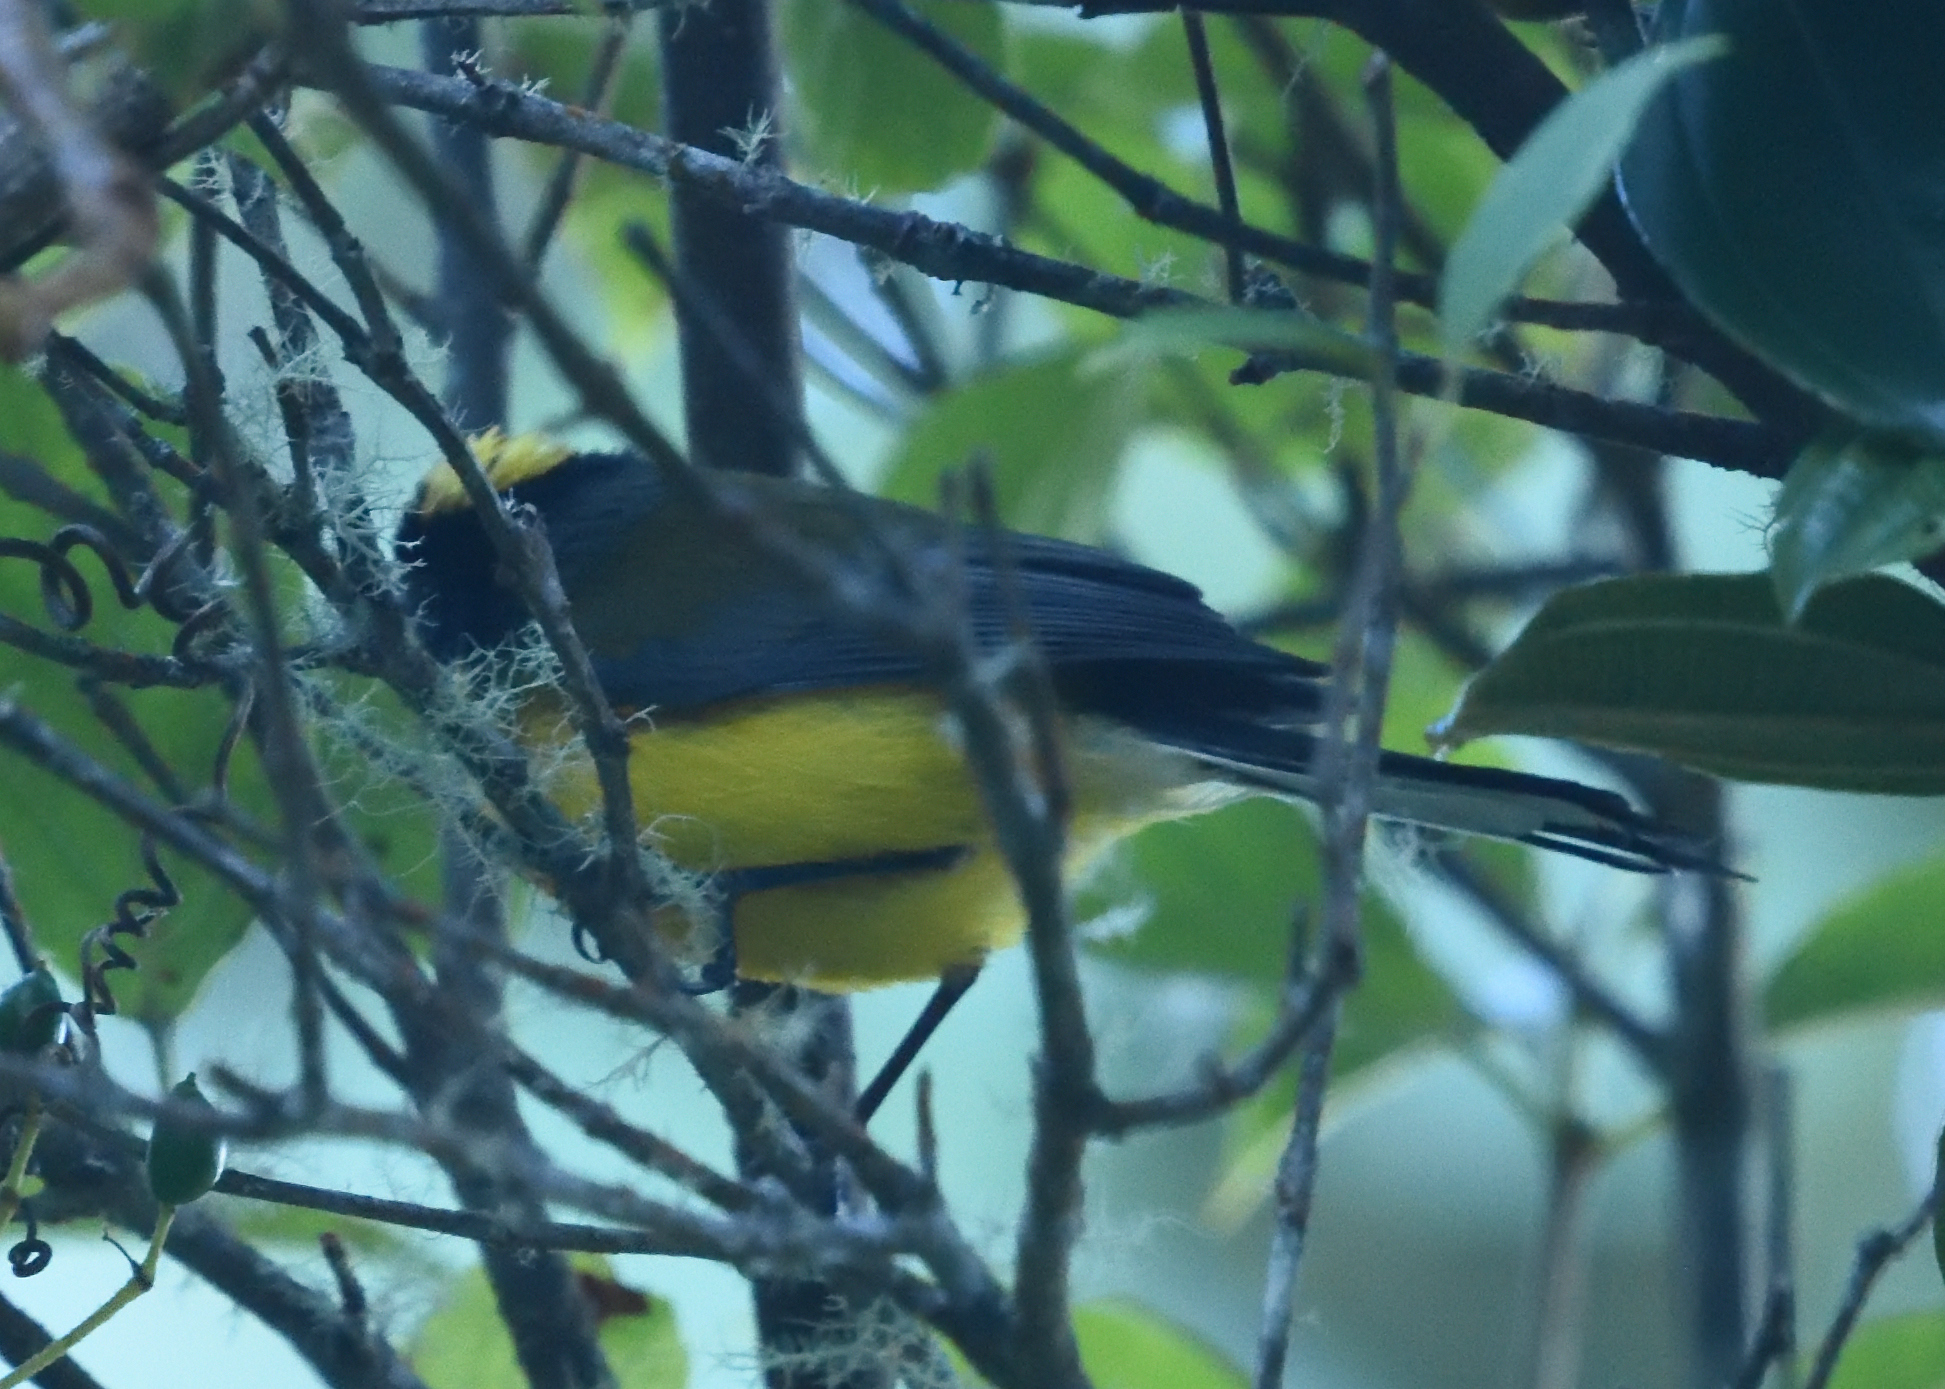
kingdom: Animalia
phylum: Chordata
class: Aves
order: Passeriformes
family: Parulidae
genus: Myioborus
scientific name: Myioborus flavivertex
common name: Yellow-crowned whitestart
